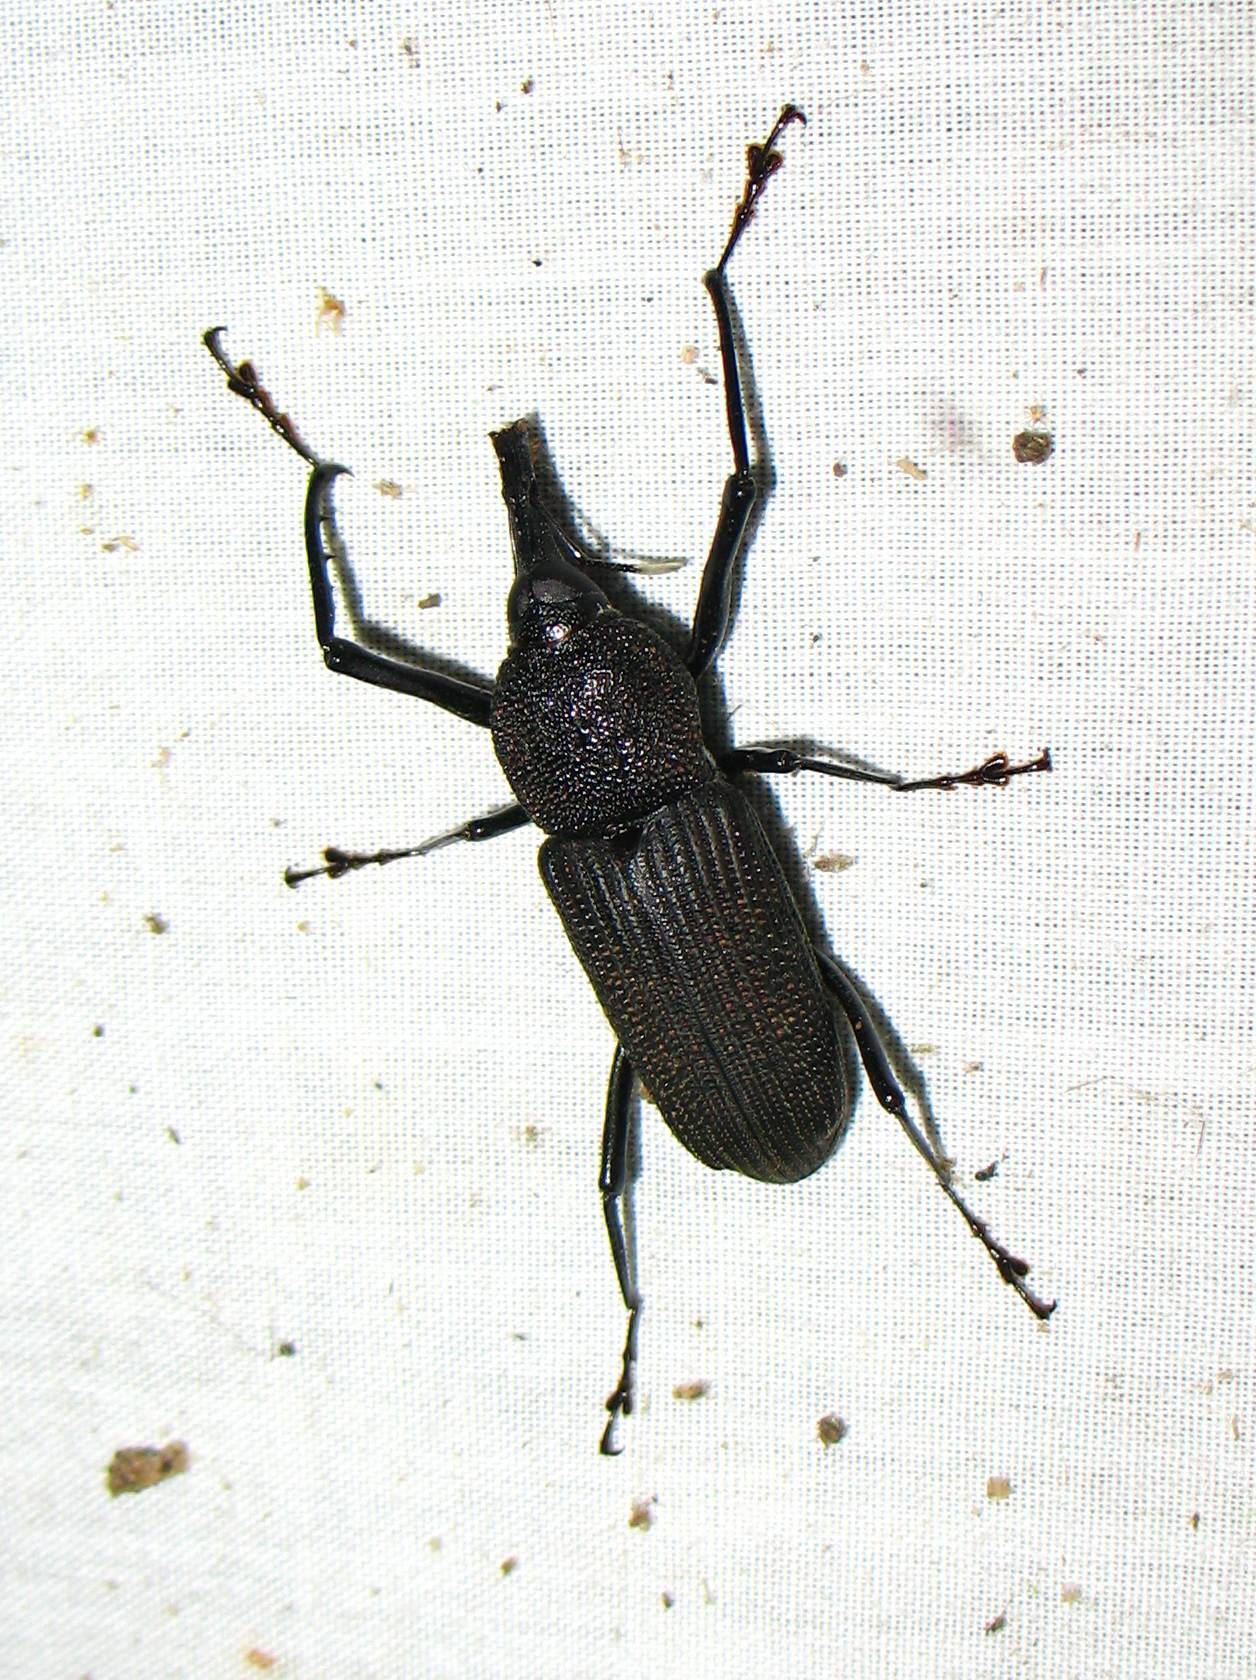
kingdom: Animalia
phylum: Arthropoda
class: Insecta
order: Coleoptera
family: Dryophthoridae
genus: Rhinostomus
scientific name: Rhinostomus barbirostris
